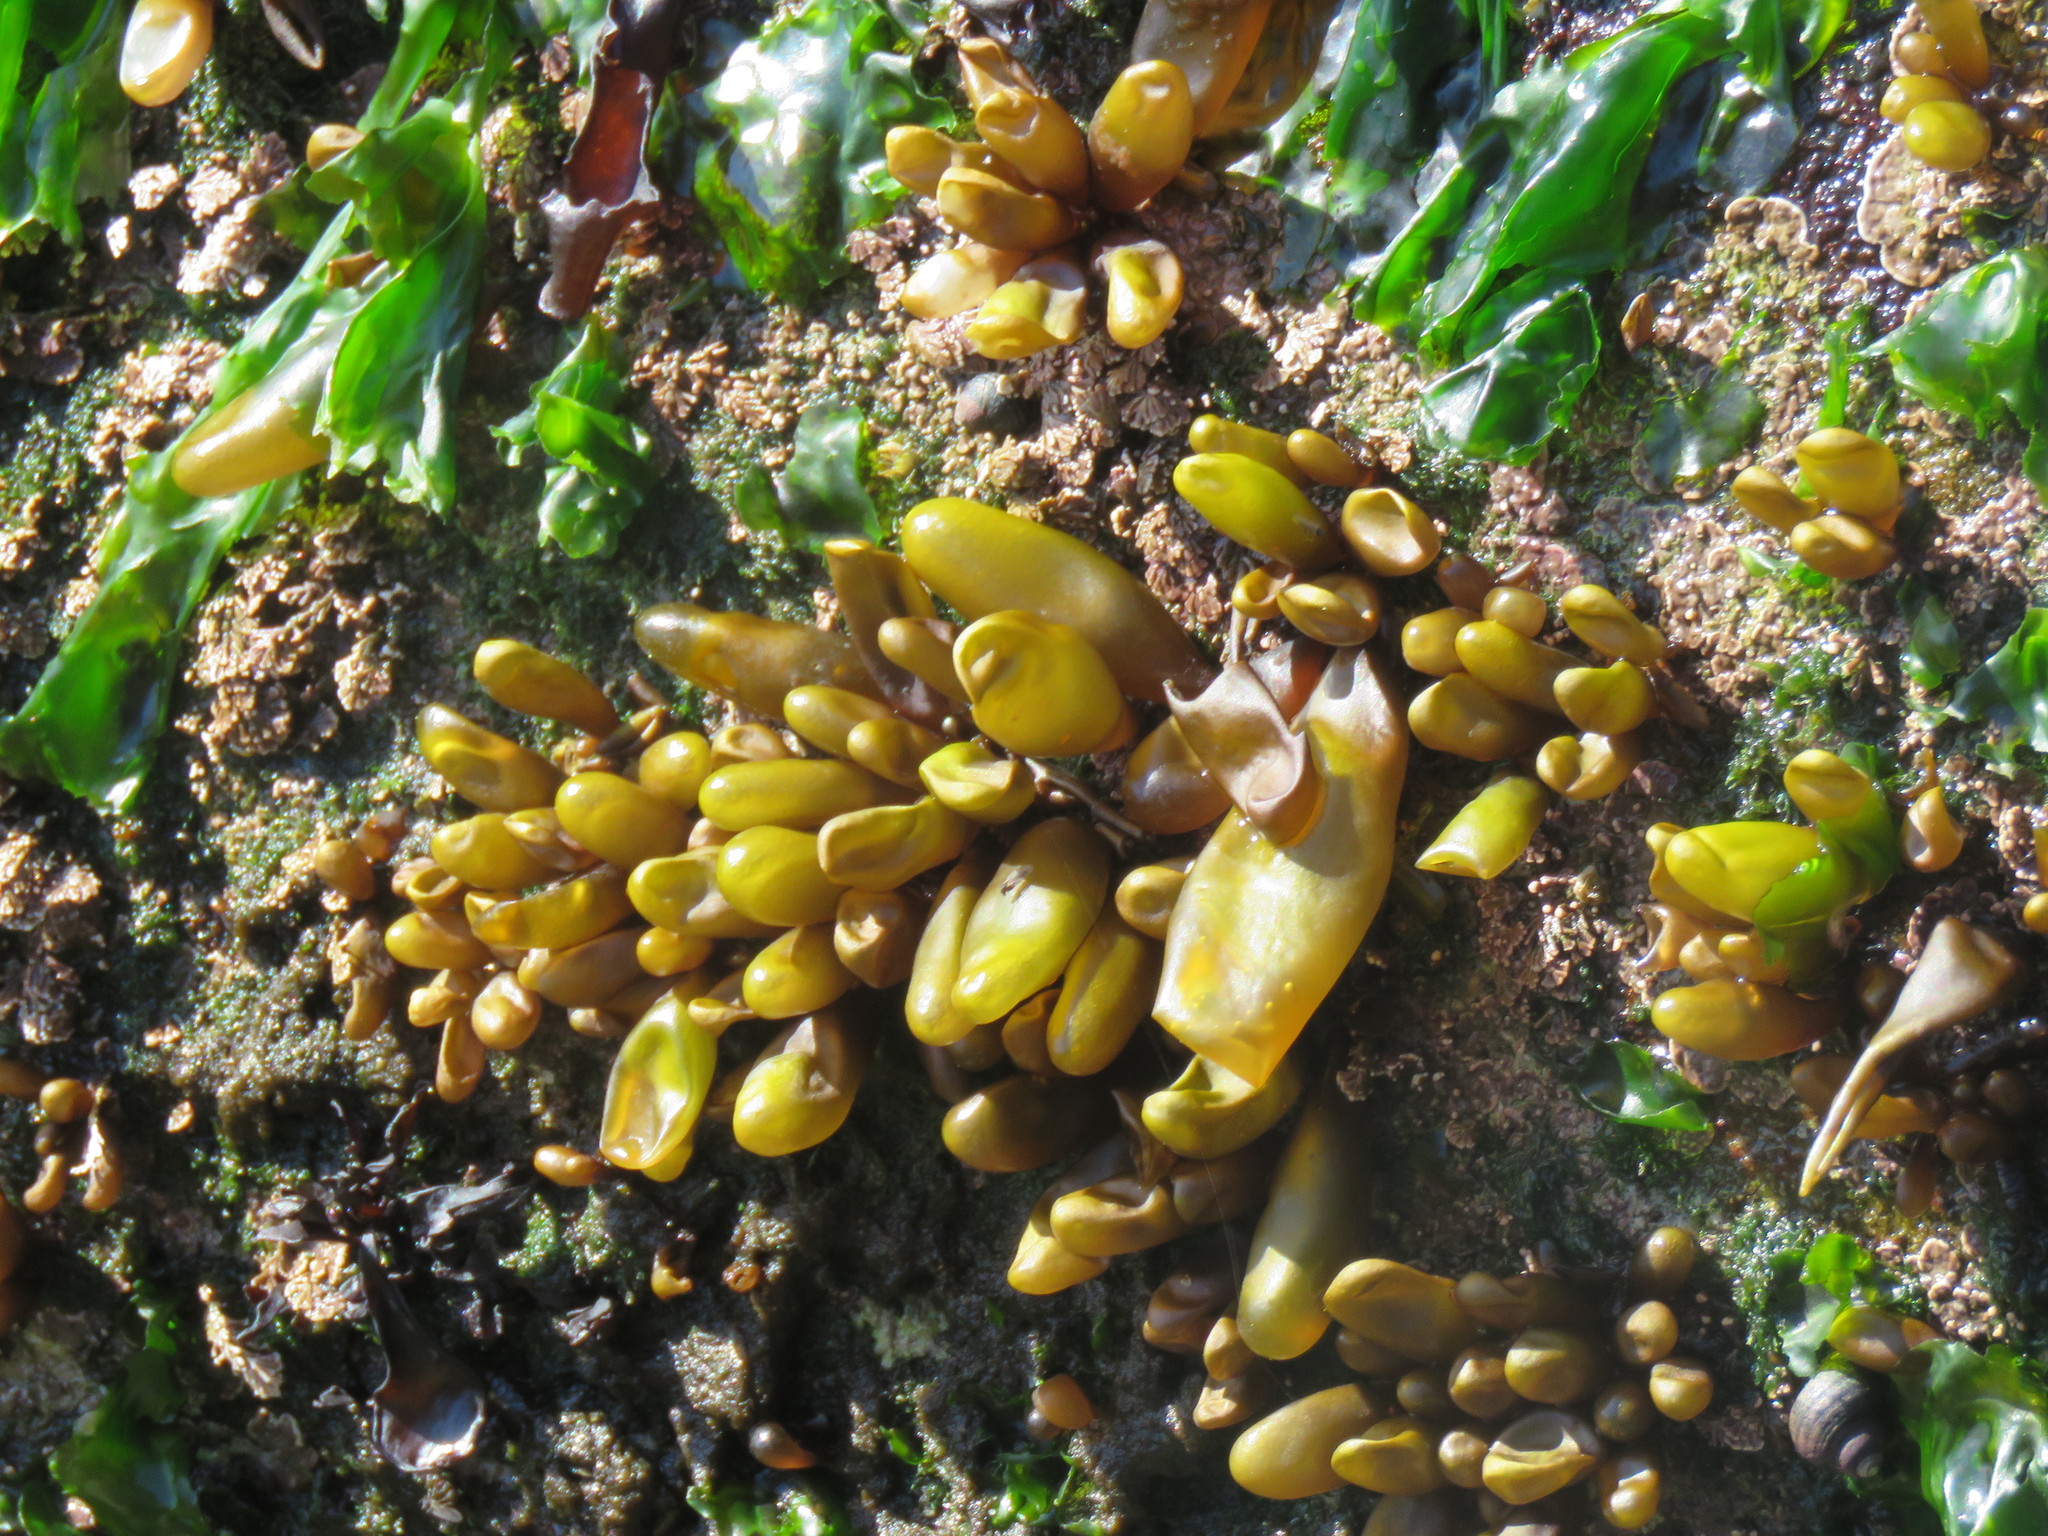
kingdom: Plantae
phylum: Rhodophyta
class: Florideophyceae
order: Palmariales
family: Palmariaceae
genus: Halosaccion
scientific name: Halosaccion glandiforme
